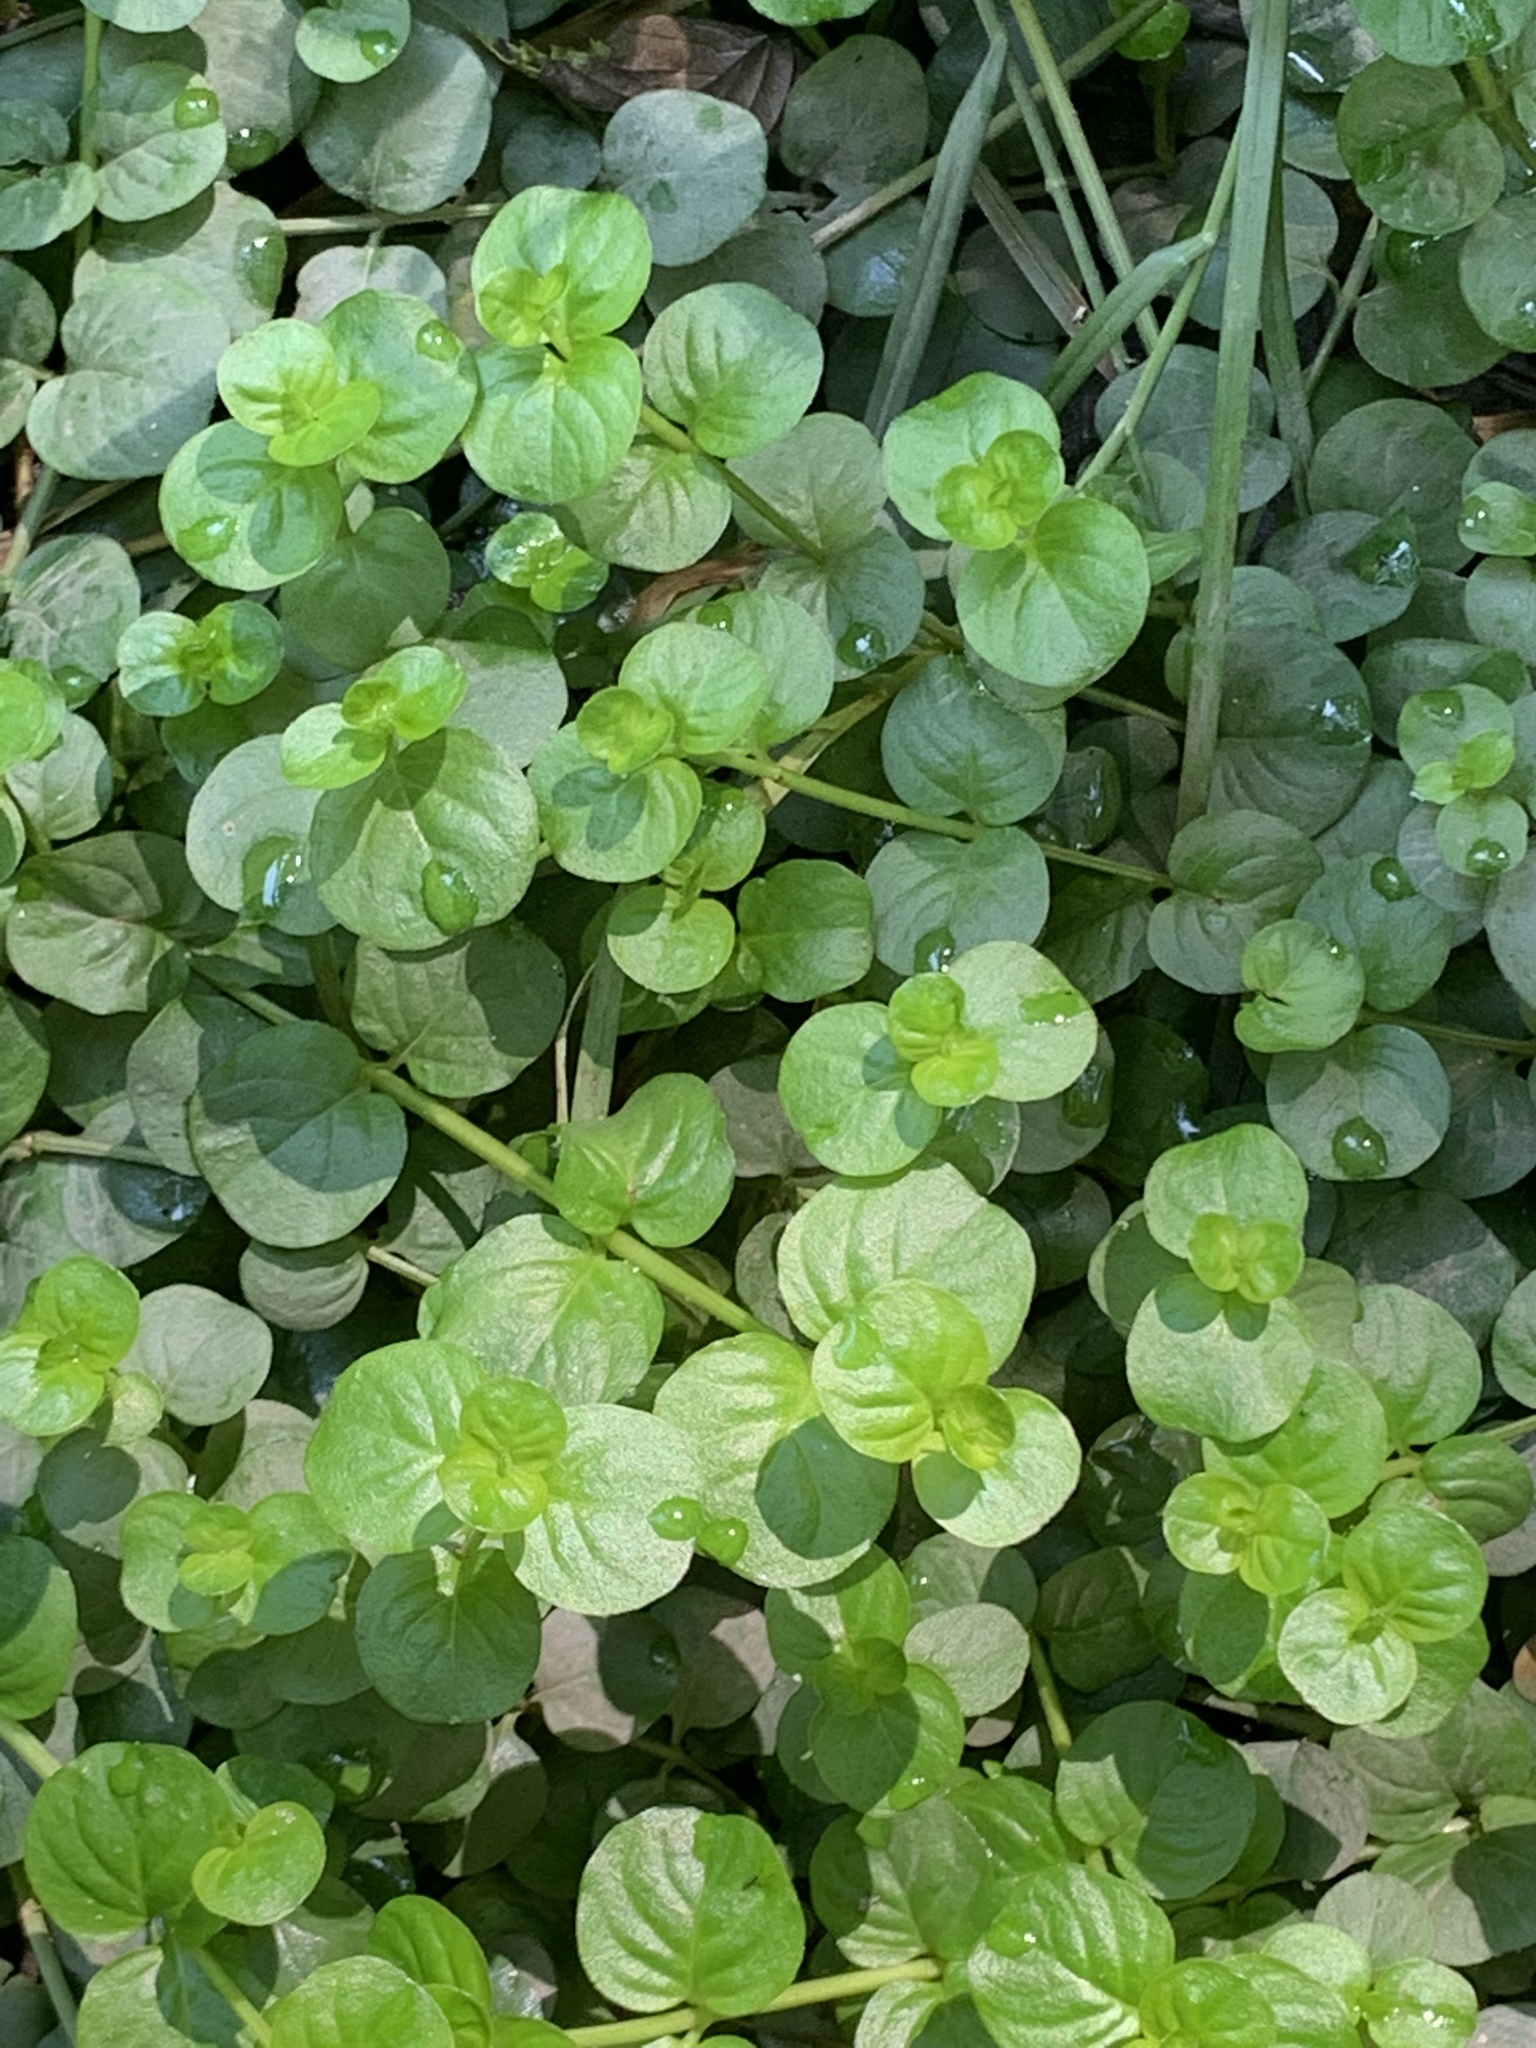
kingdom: Plantae
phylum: Tracheophyta
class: Magnoliopsida
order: Ericales
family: Primulaceae
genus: Lysimachia
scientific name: Lysimachia nummularia
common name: Moneywort
